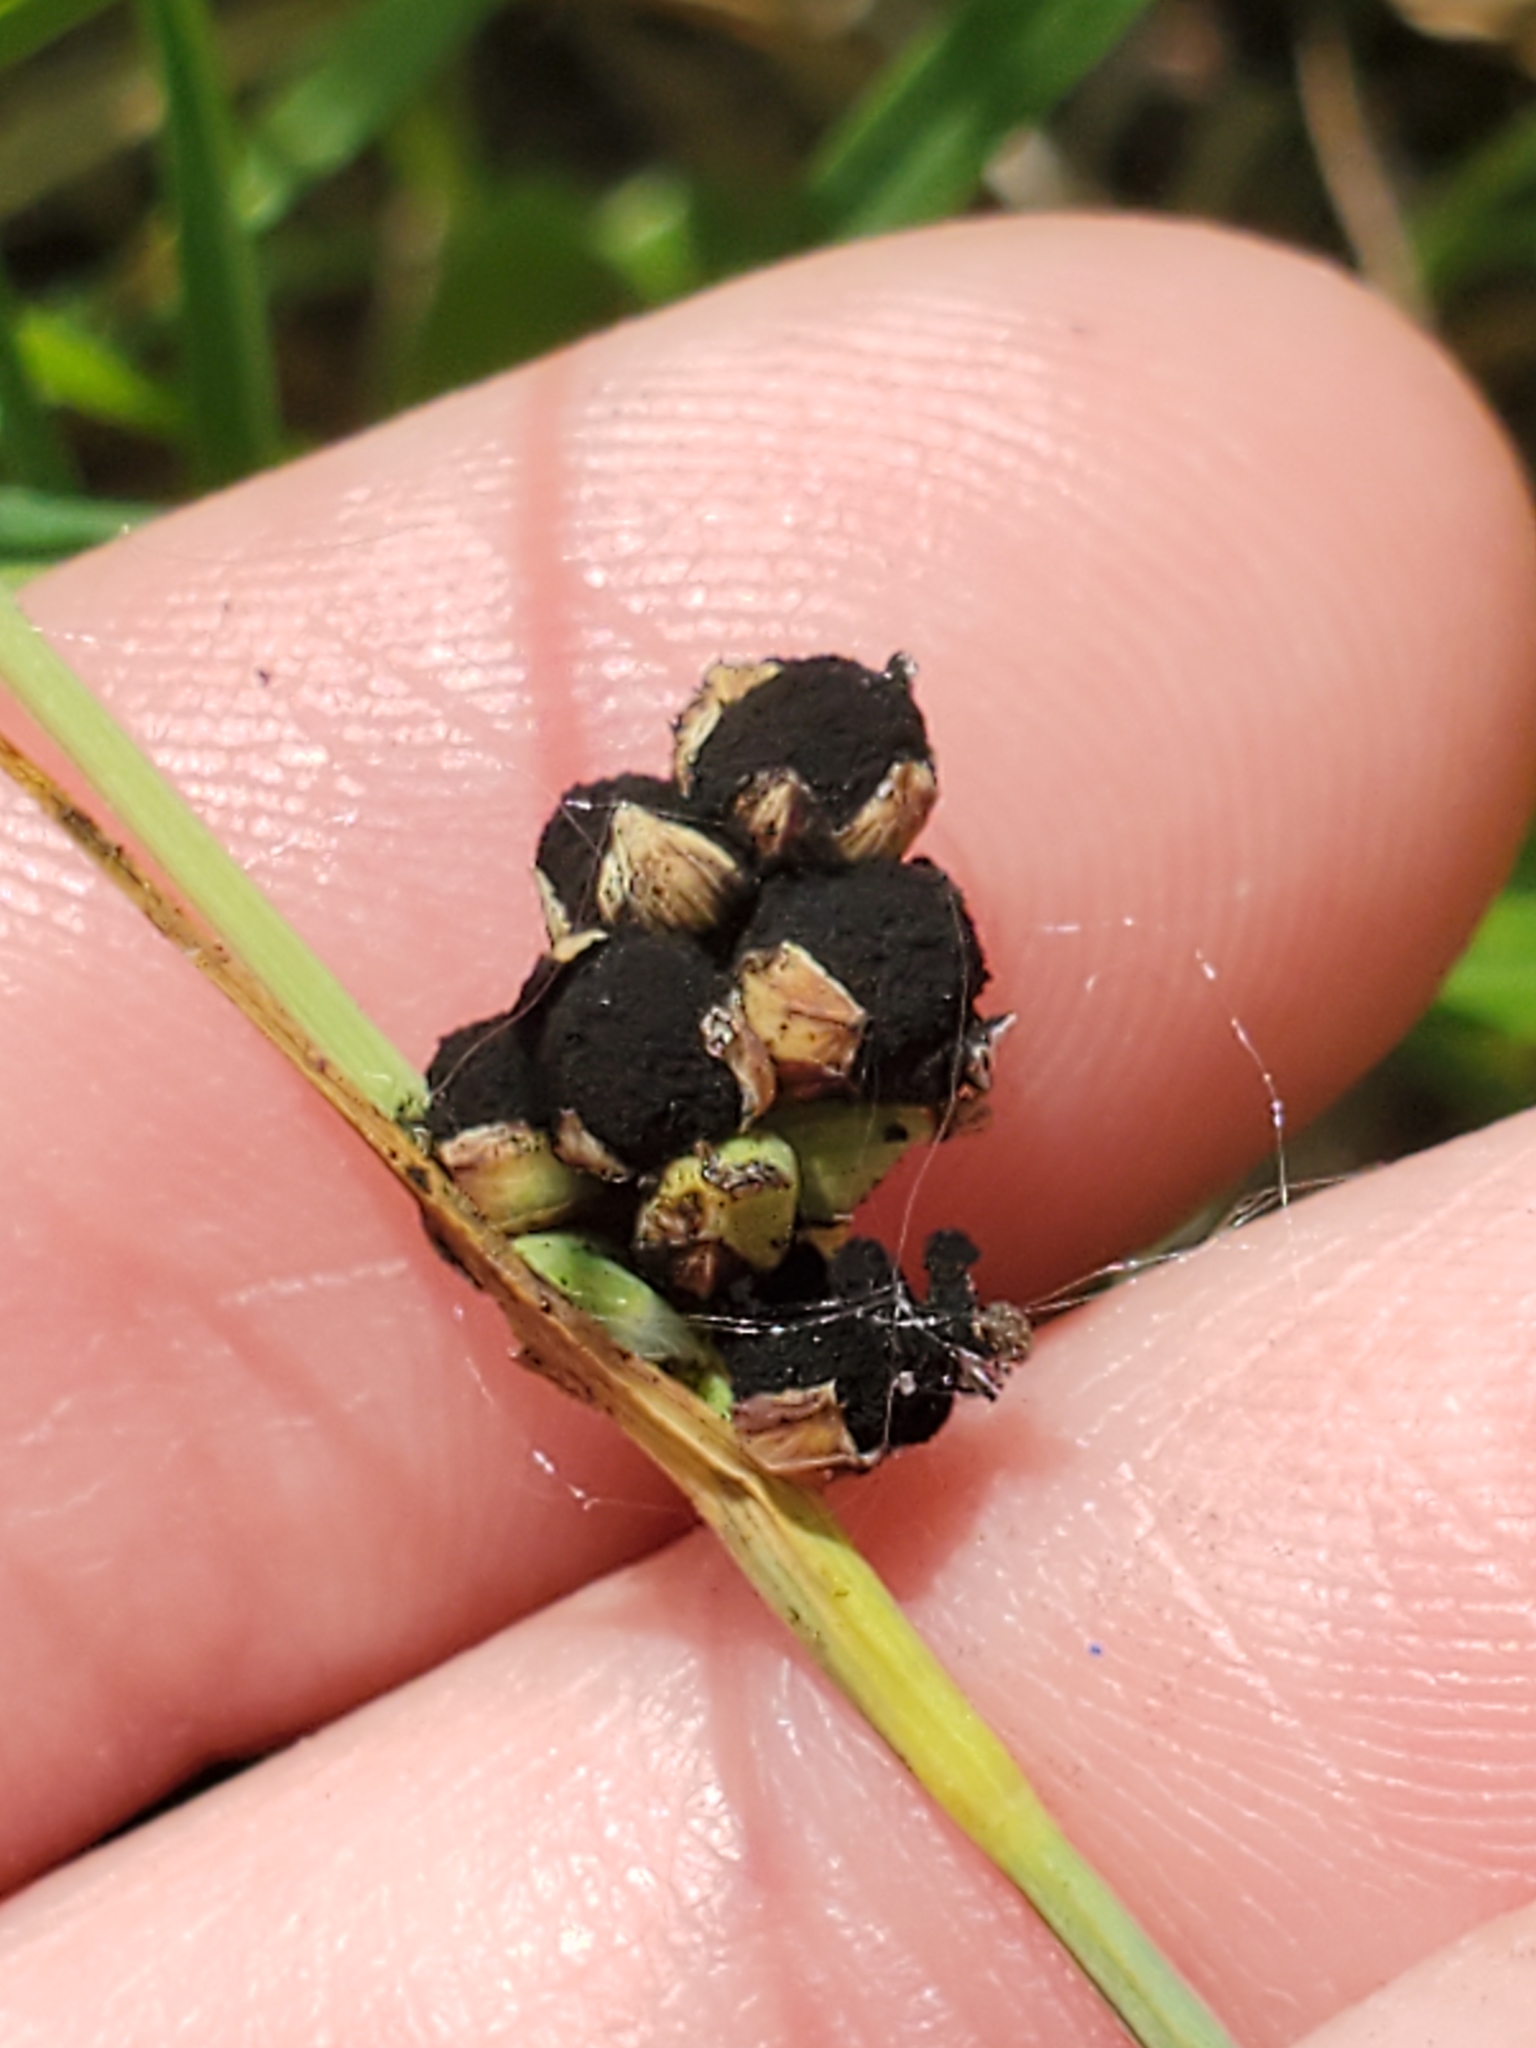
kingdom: Fungi
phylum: Basidiomycota
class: Ustilaginomycetes
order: Ustilaginales
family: Anthracoideaceae
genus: Anthracoidea
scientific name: Anthracoidea caricis-meadii
